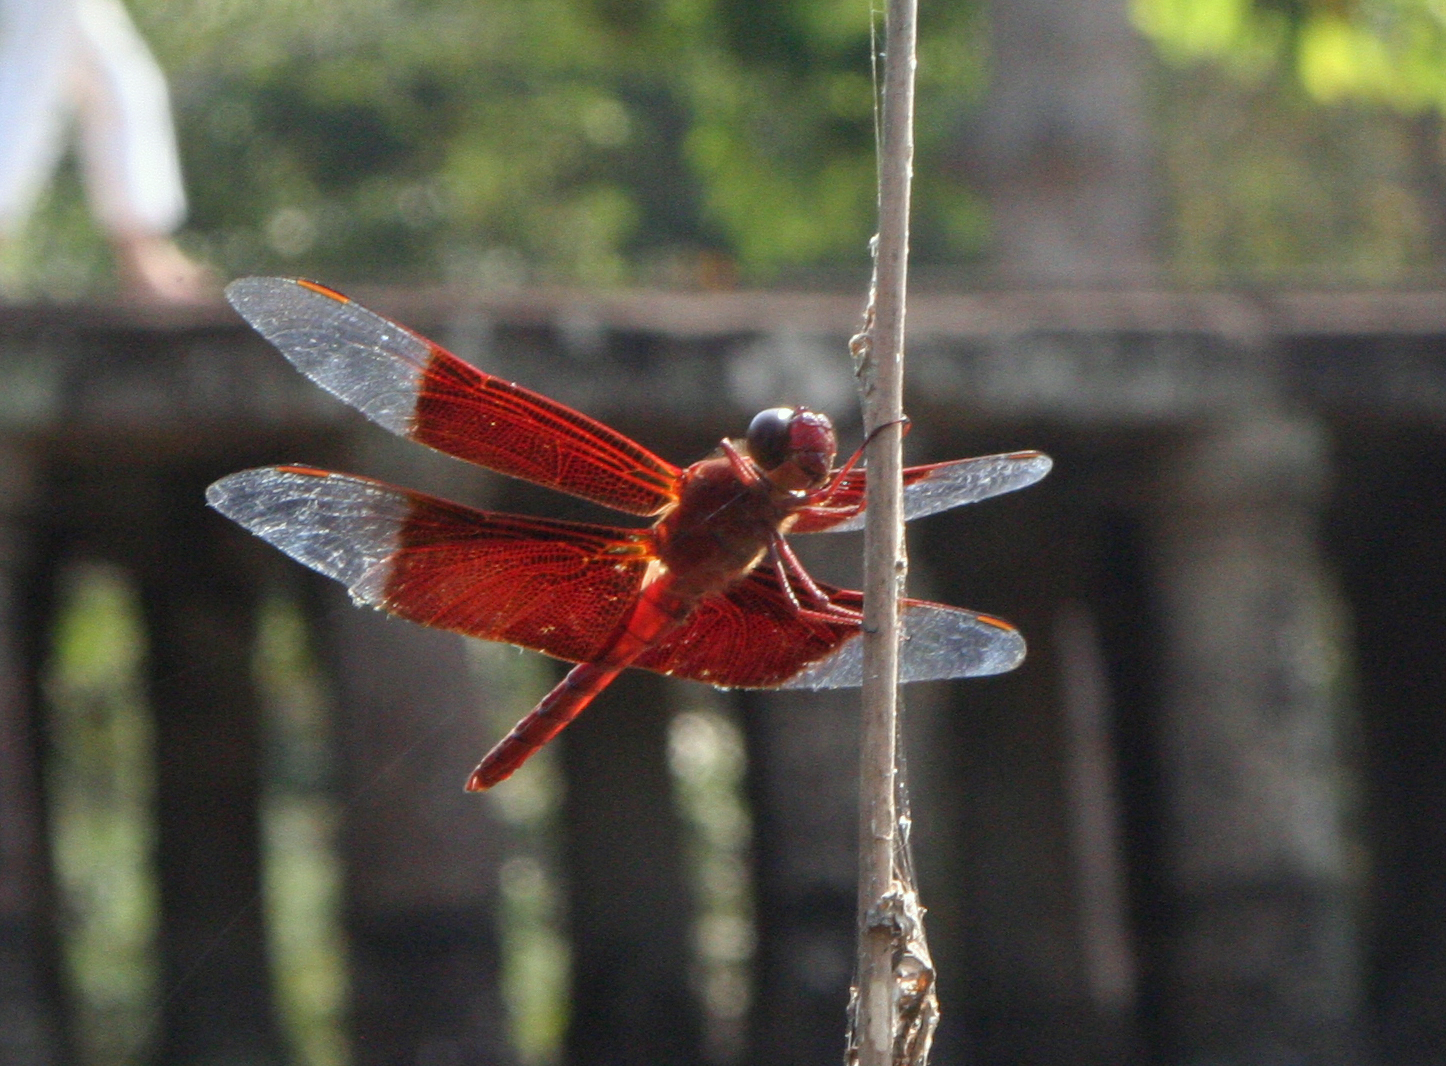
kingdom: Animalia
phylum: Arthropoda
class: Insecta
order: Odonata
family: Libellulidae
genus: Camacinia
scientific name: Camacinia gigantea
